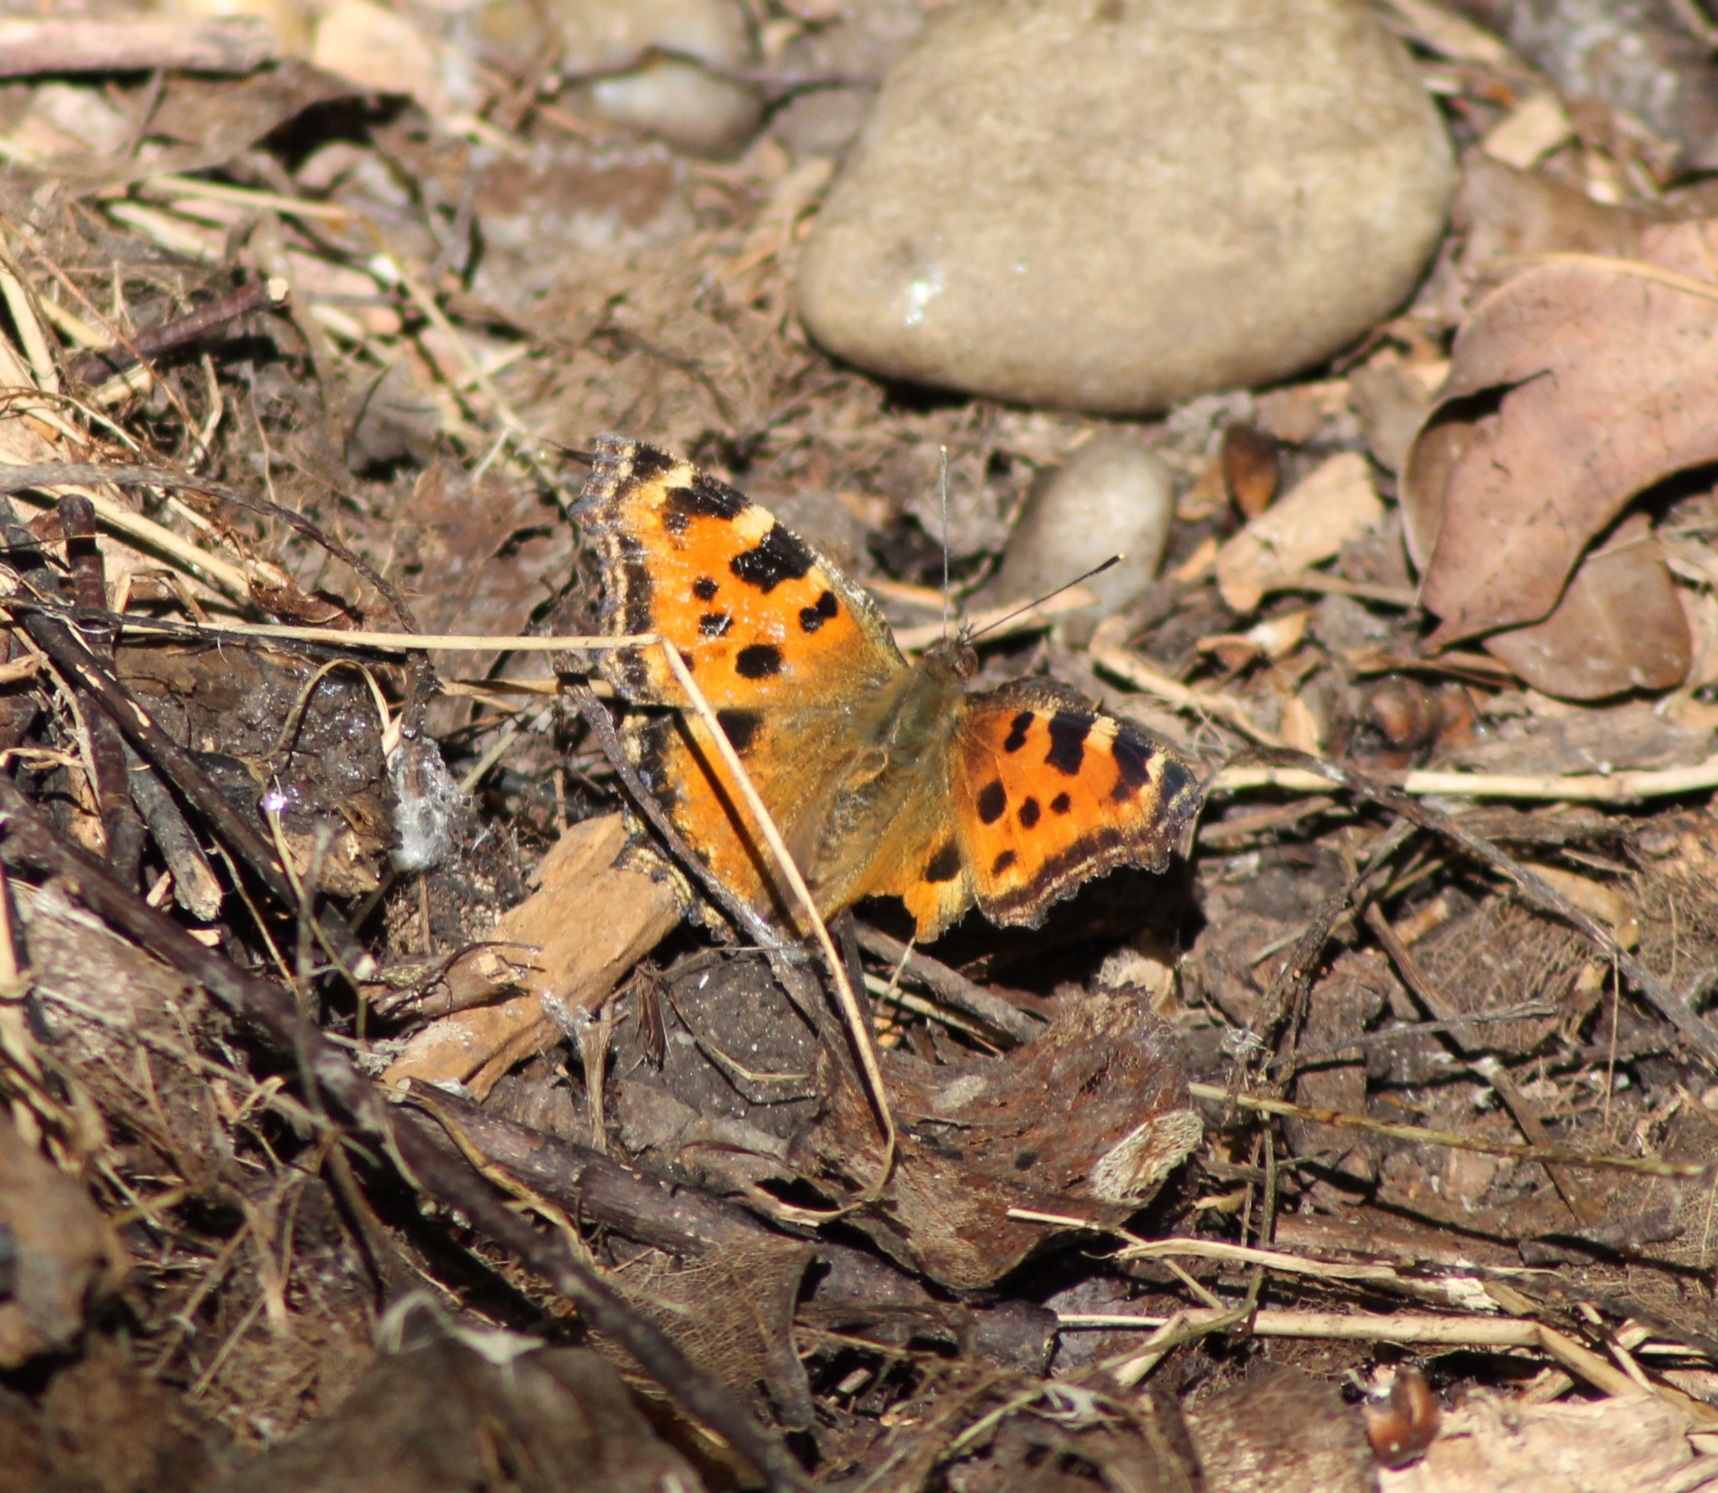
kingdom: Animalia
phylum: Arthropoda
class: Insecta
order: Lepidoptera
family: Nymphalidae
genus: Nymphalis
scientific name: Nymphalis polychloros
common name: Large tortoiseshell
